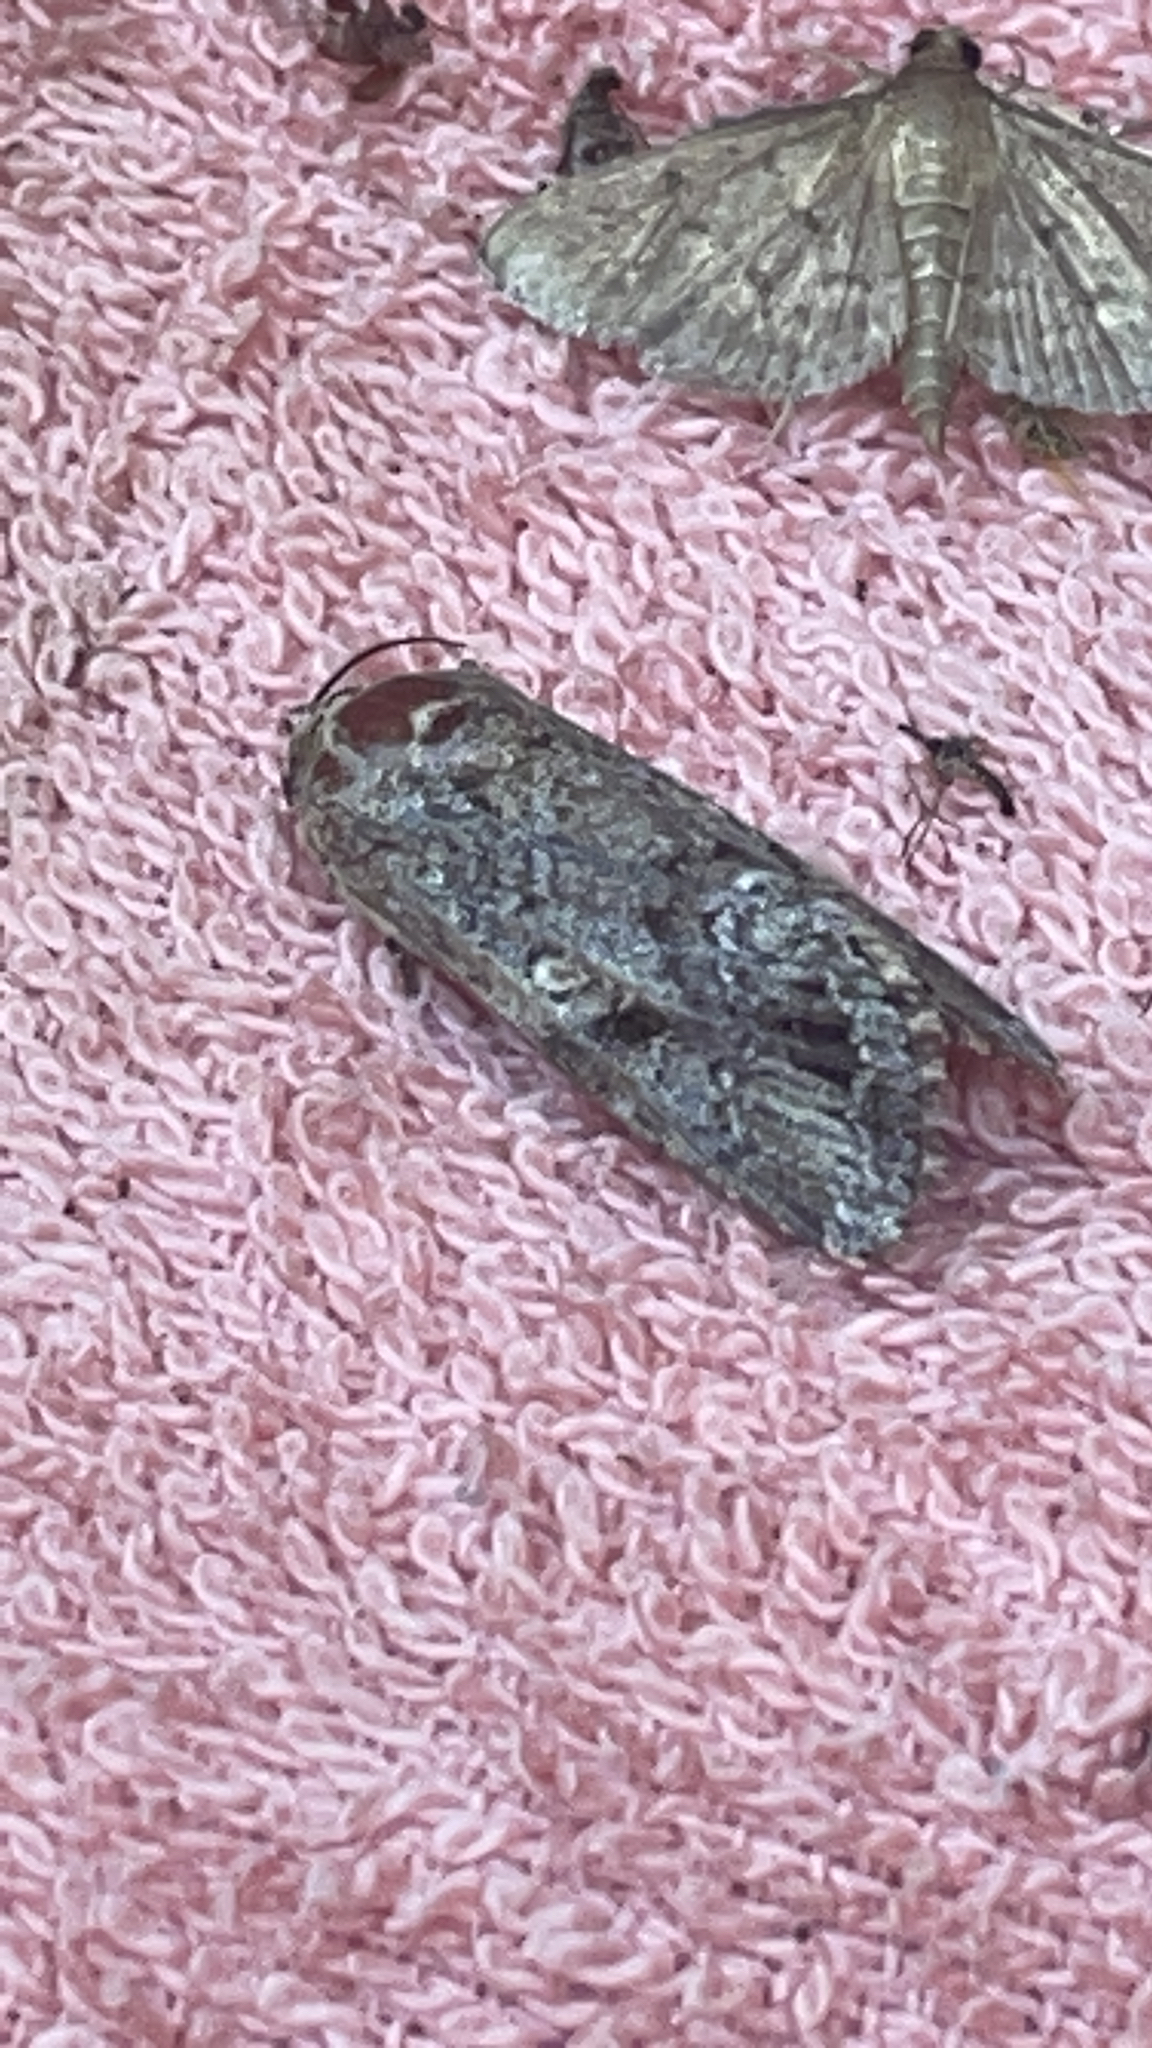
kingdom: Animalia
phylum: Arthropoda
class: Insecta
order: Lepidoptera
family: Noctuidae
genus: Spodoptera
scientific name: Spodoptera mauritia
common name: Lawn armyworm
